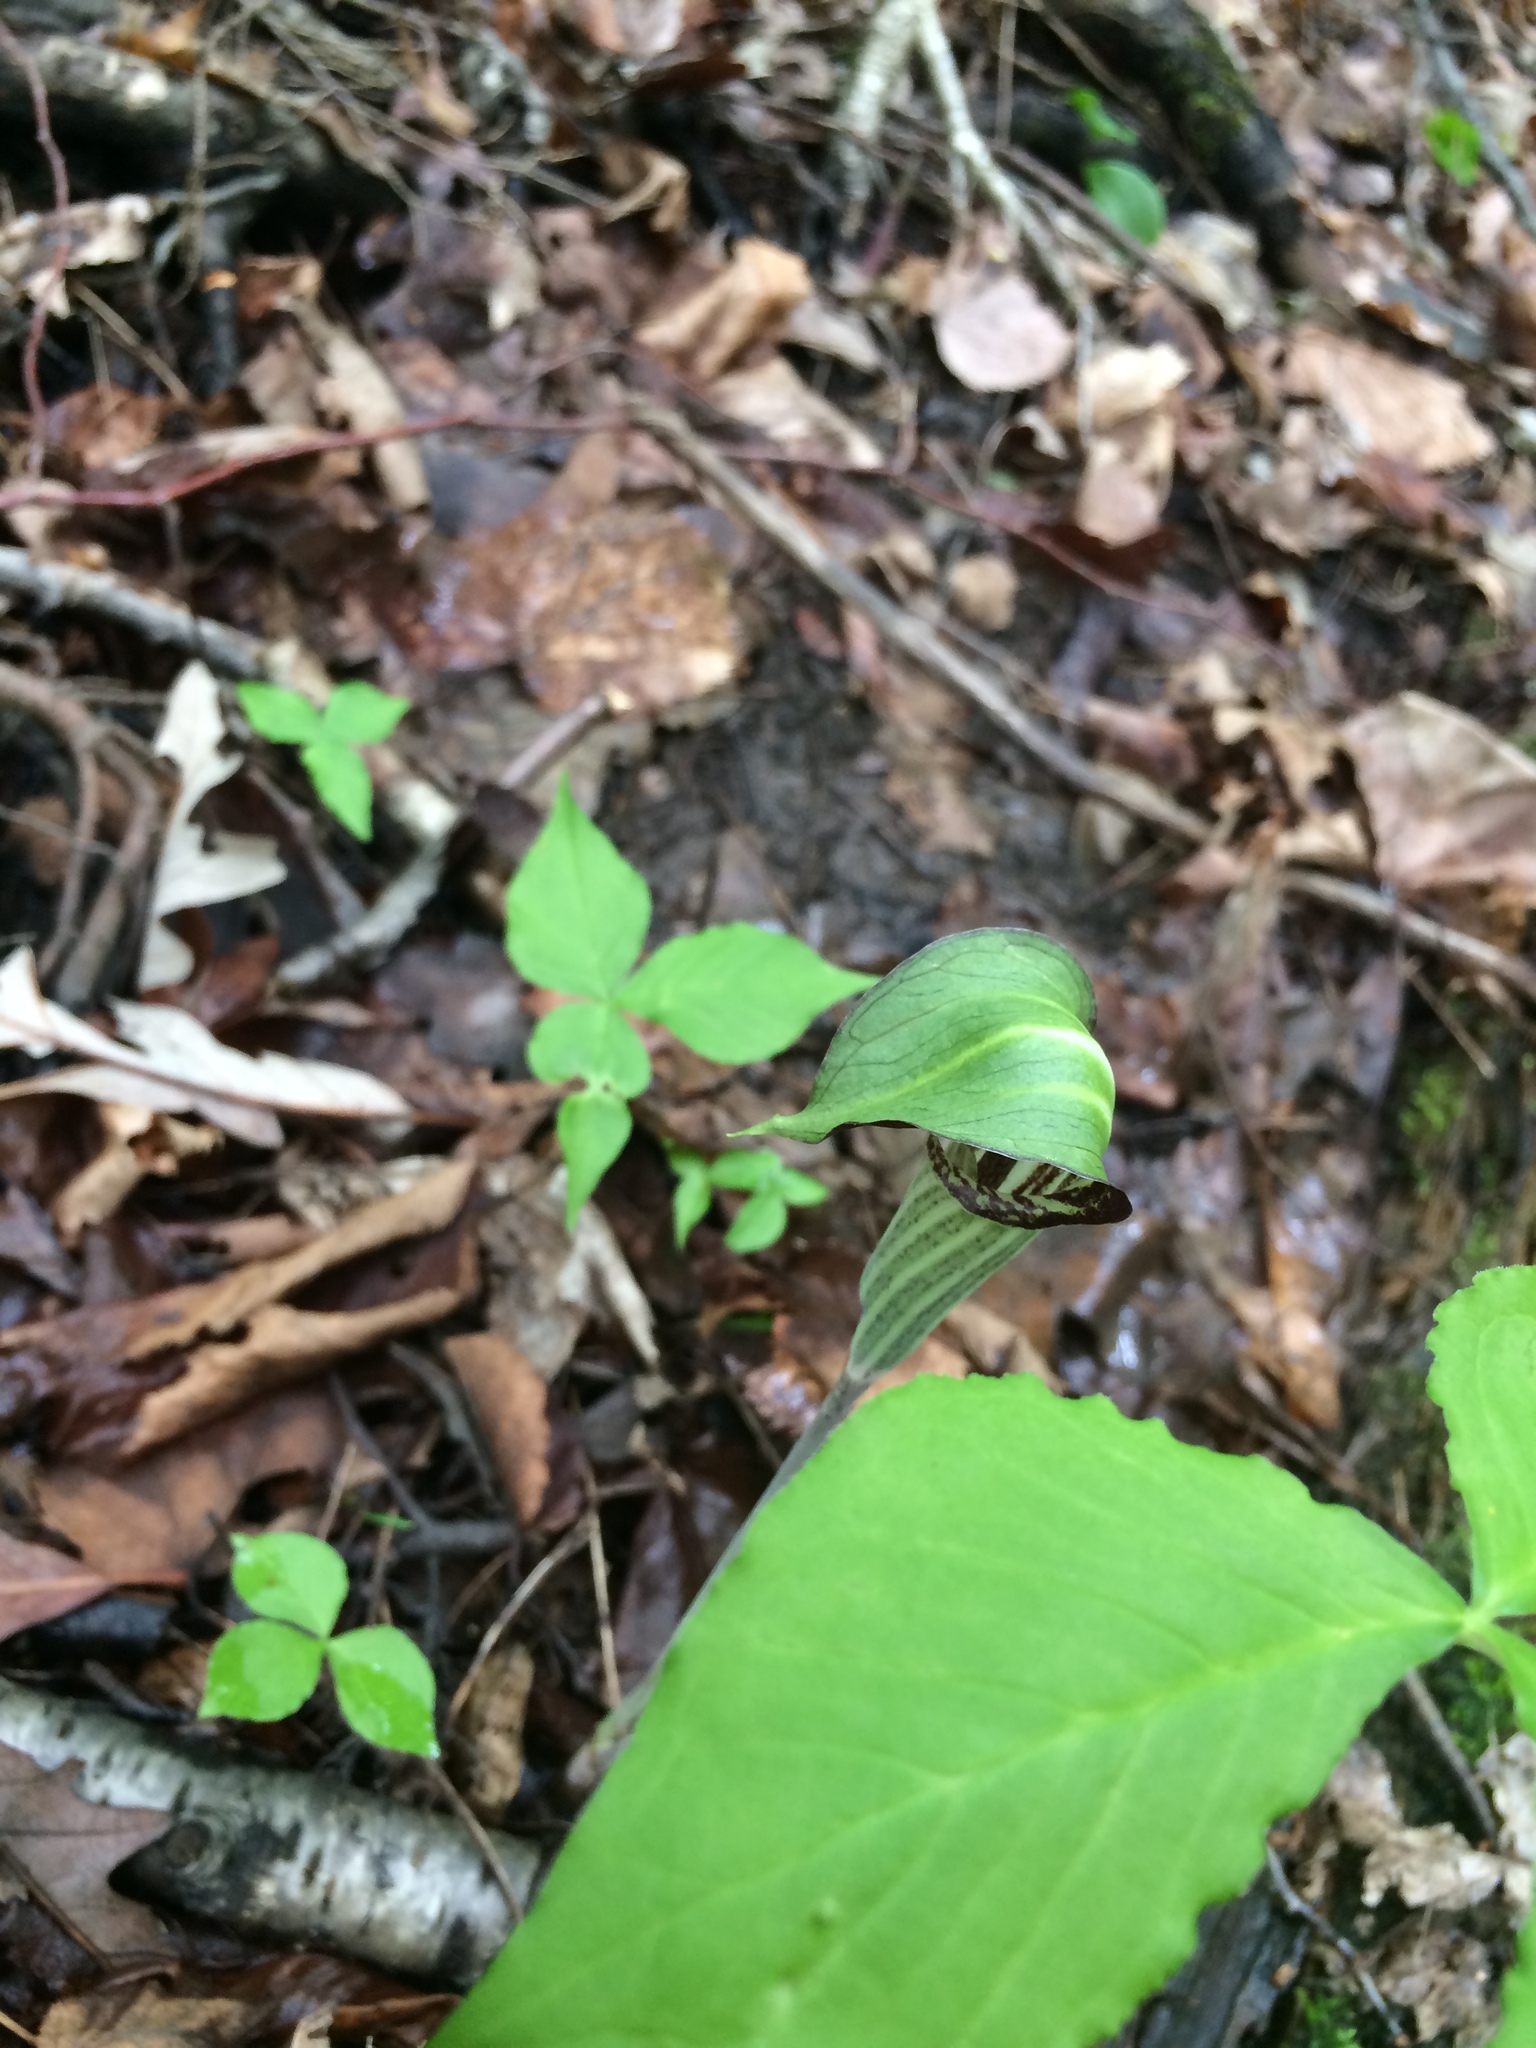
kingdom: Plantae
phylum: Tracheophyta
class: Liliopsida
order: Alismatales
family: Araceae
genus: Arisaema
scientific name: Arisaema triphyllum
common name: Jack-in-the-pulpit
